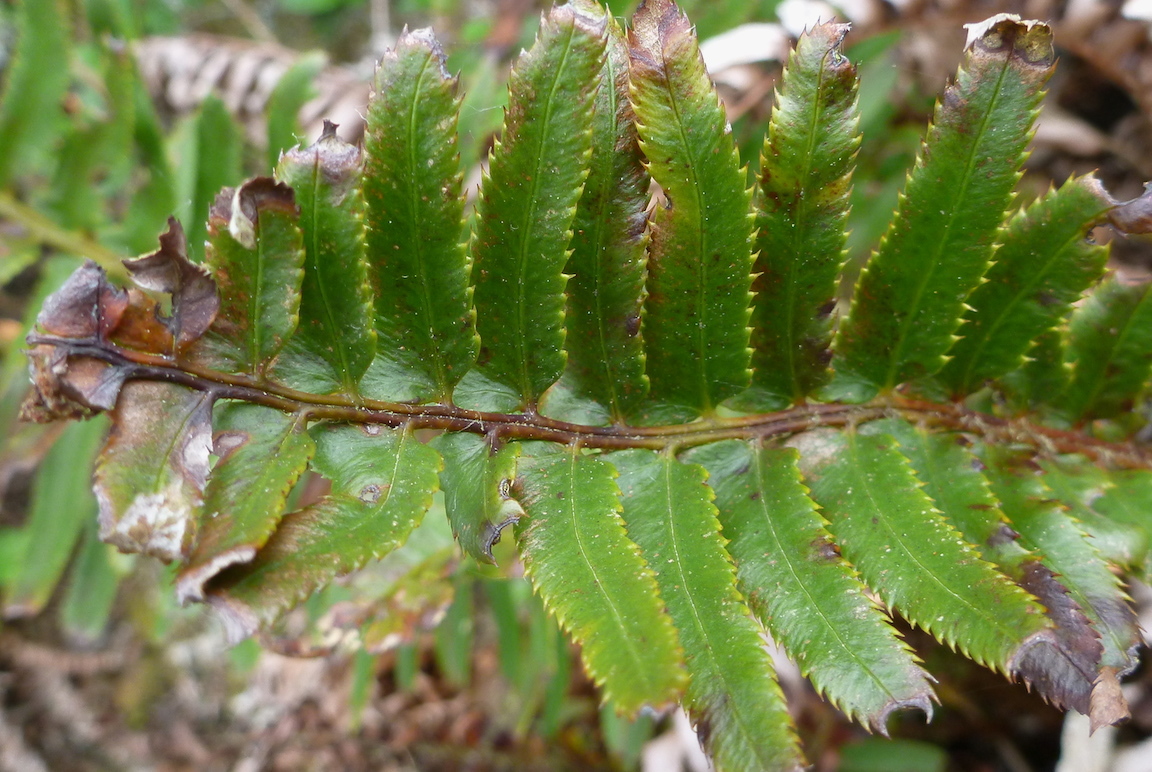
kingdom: Plantae
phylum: Tracheophyta
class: Polypodiopsida
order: Polypodiales
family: Dryopteridaceae
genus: Polystichum
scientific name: Polystichum munitum
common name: Western sword-fern
